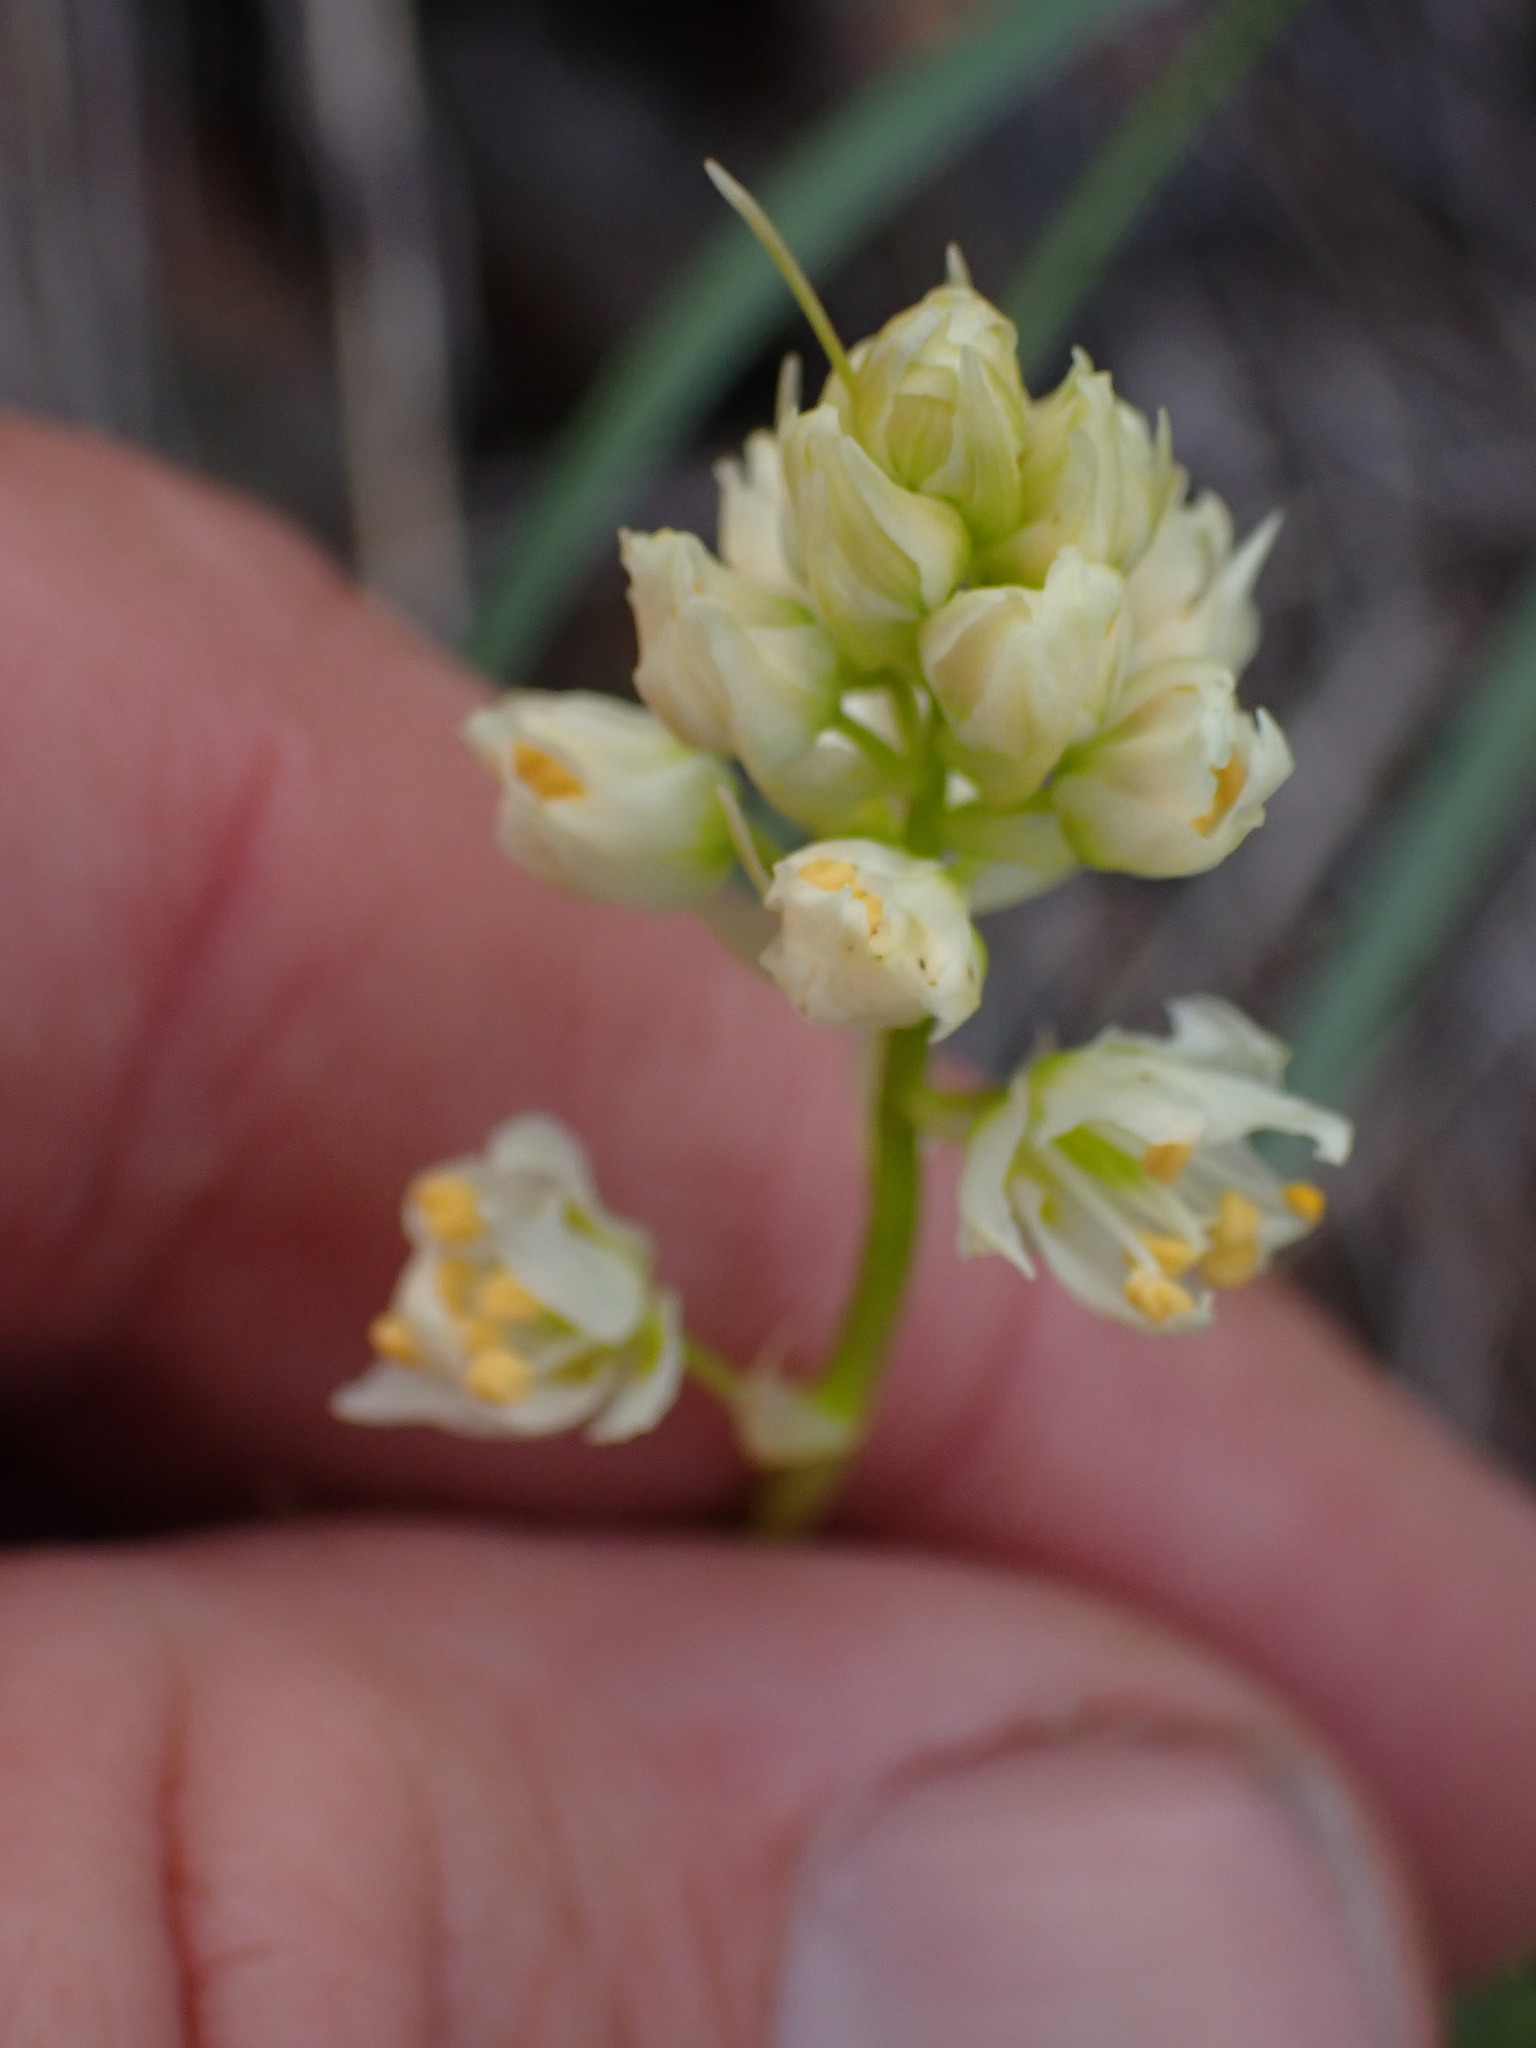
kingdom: Plantae
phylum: Tracheophyta
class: Liliopsida
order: Liliales
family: Melanthiaceae
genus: Toxicoscordion
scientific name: Toxicoscordion venenosum
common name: Meadow death camas
